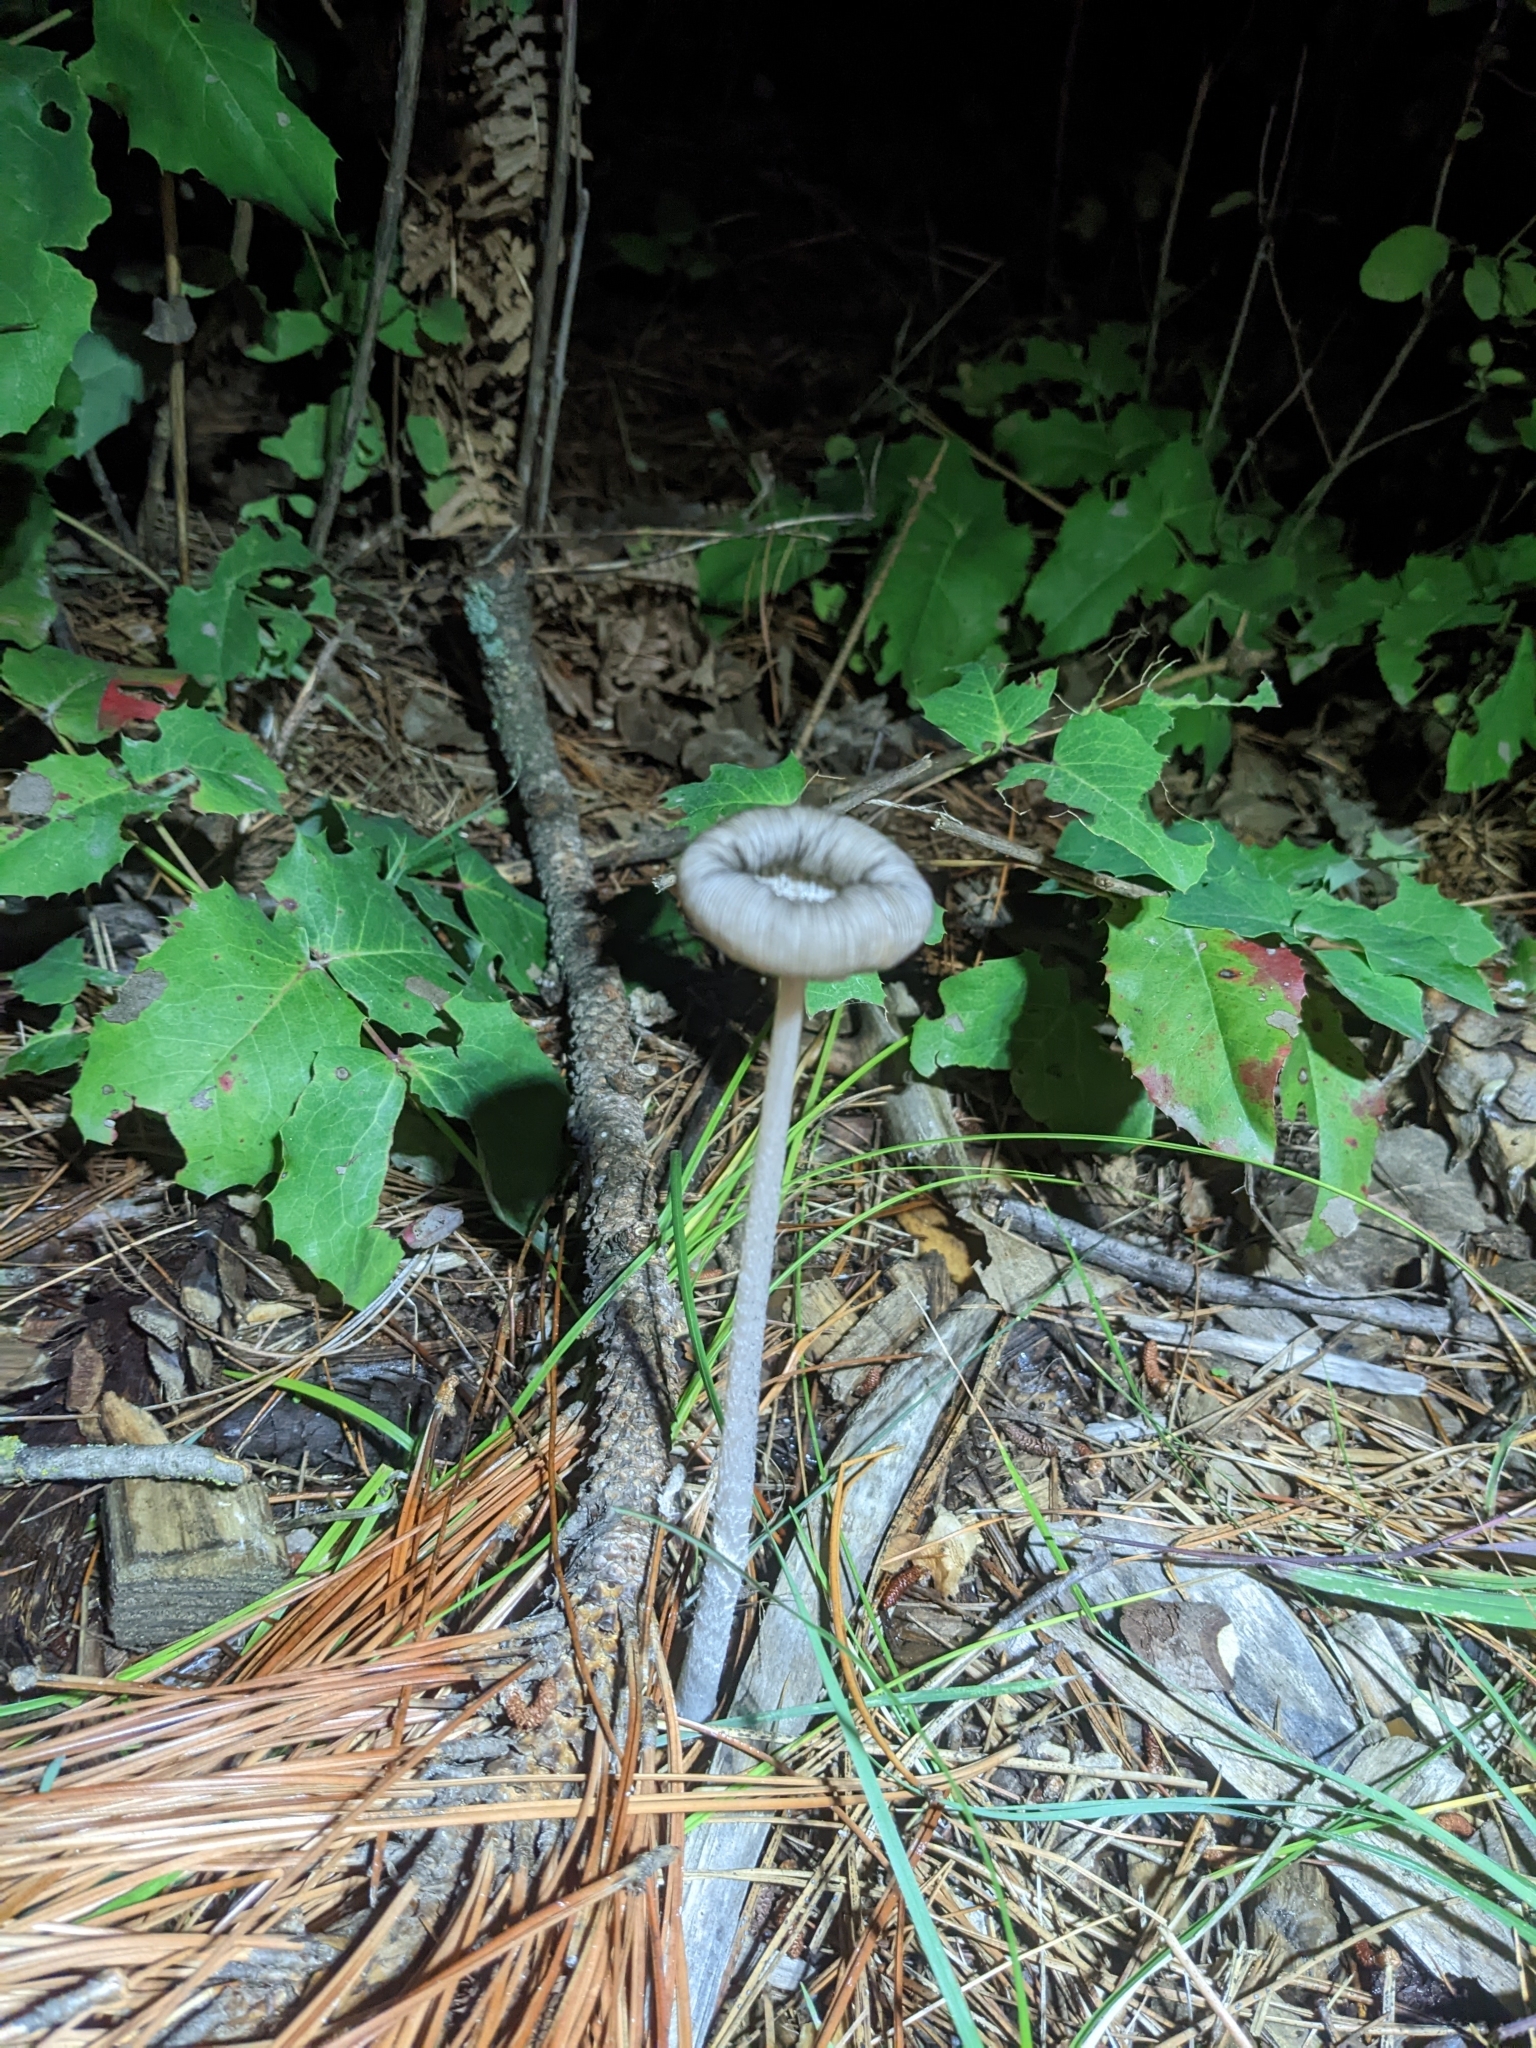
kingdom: Fungi
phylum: Basidiomycota
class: Agaricomycetes
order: Agaricales
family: Psathyrellaceae
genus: Coprinopsis
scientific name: Coprinopsis lagopus
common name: Hare'sfoot inkcap
